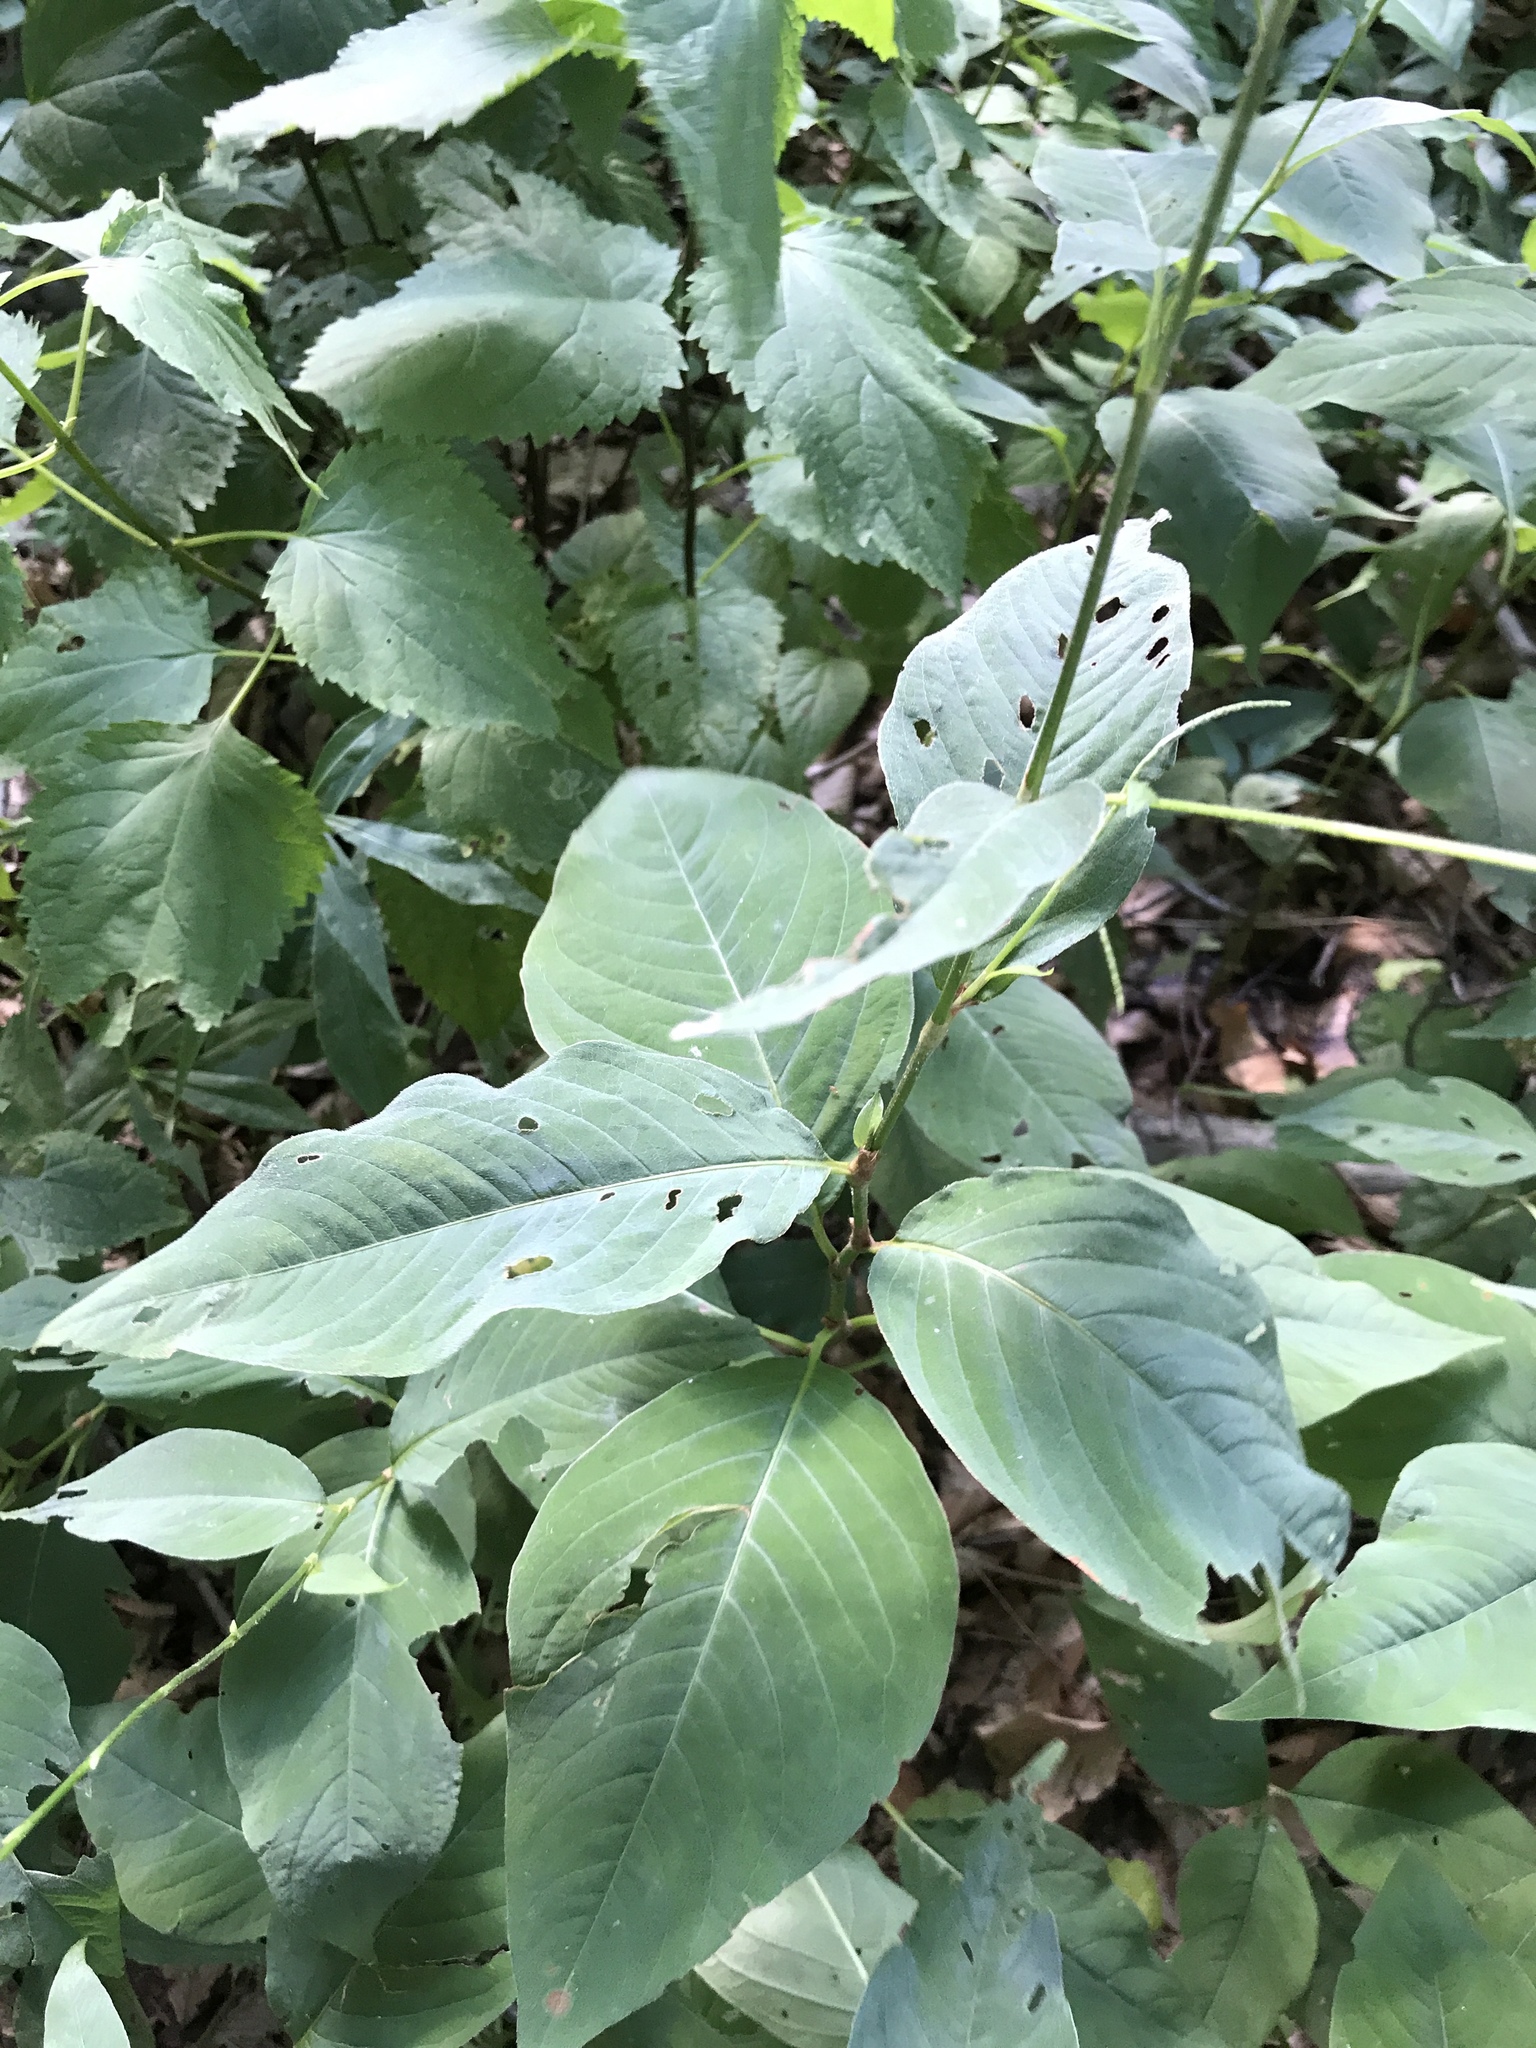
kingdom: Plantae
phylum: Tracheophyta
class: Magnoliopsida
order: Caryophyllales
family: Polygonaceae
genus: Persicaria
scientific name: Persicaria virginiana
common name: Jumpseed
